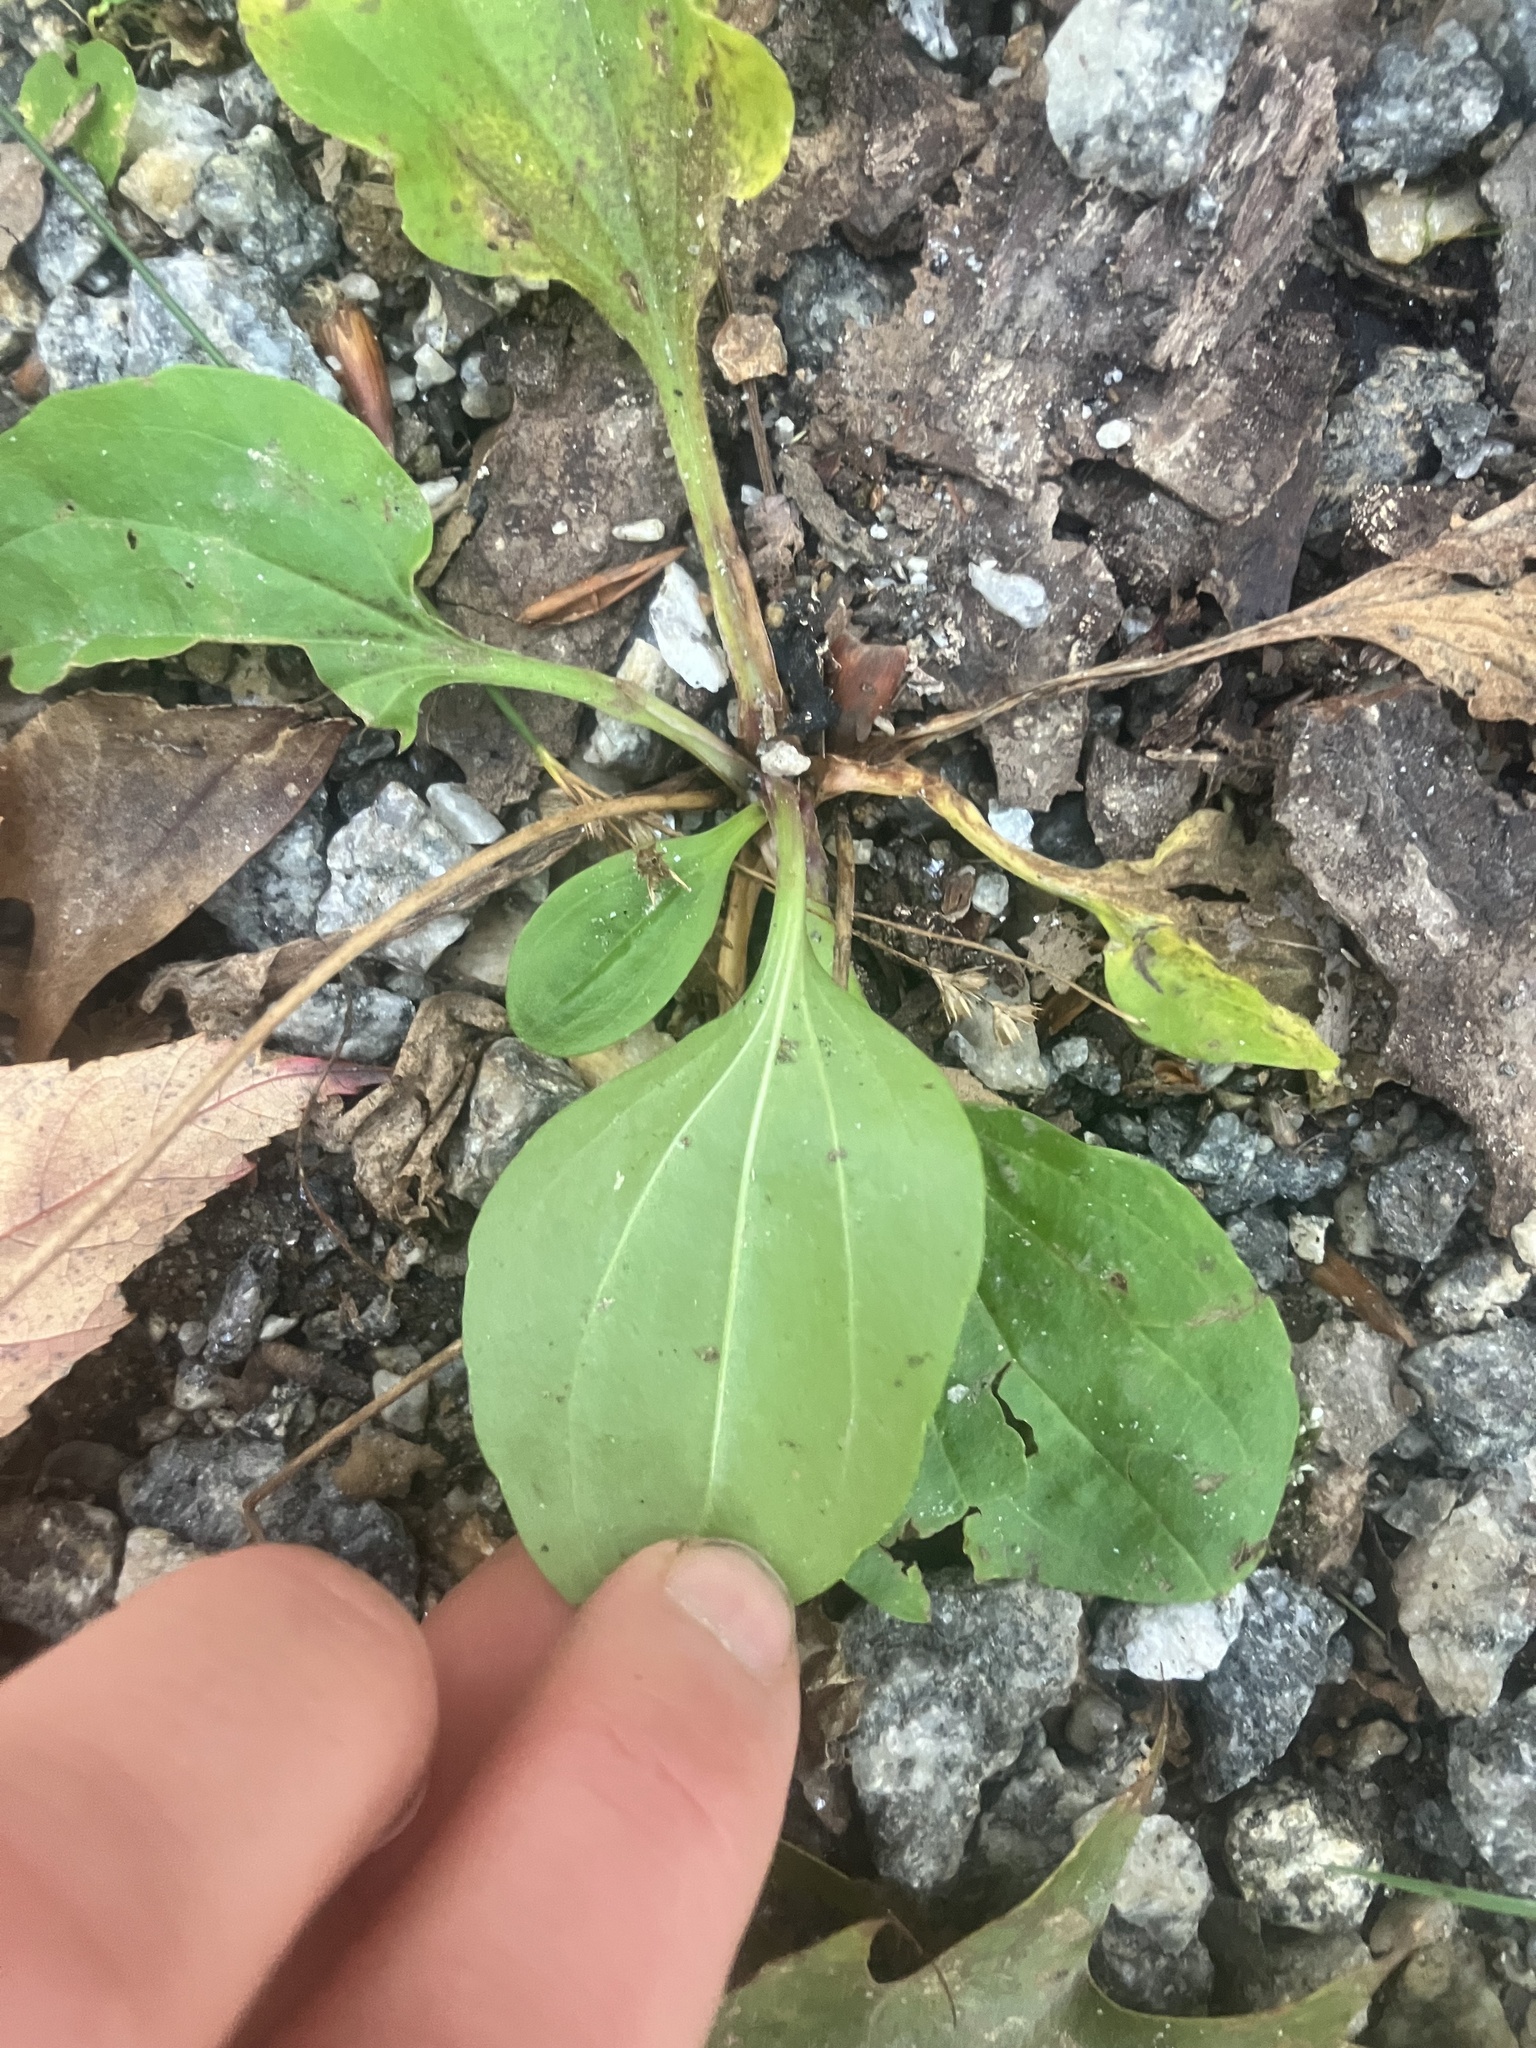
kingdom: Plantae
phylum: Tracheophyta
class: Magnoliopsida
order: Lamiales
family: Plantaginaceae
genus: Plantago
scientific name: Plantago major
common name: Common plantain
